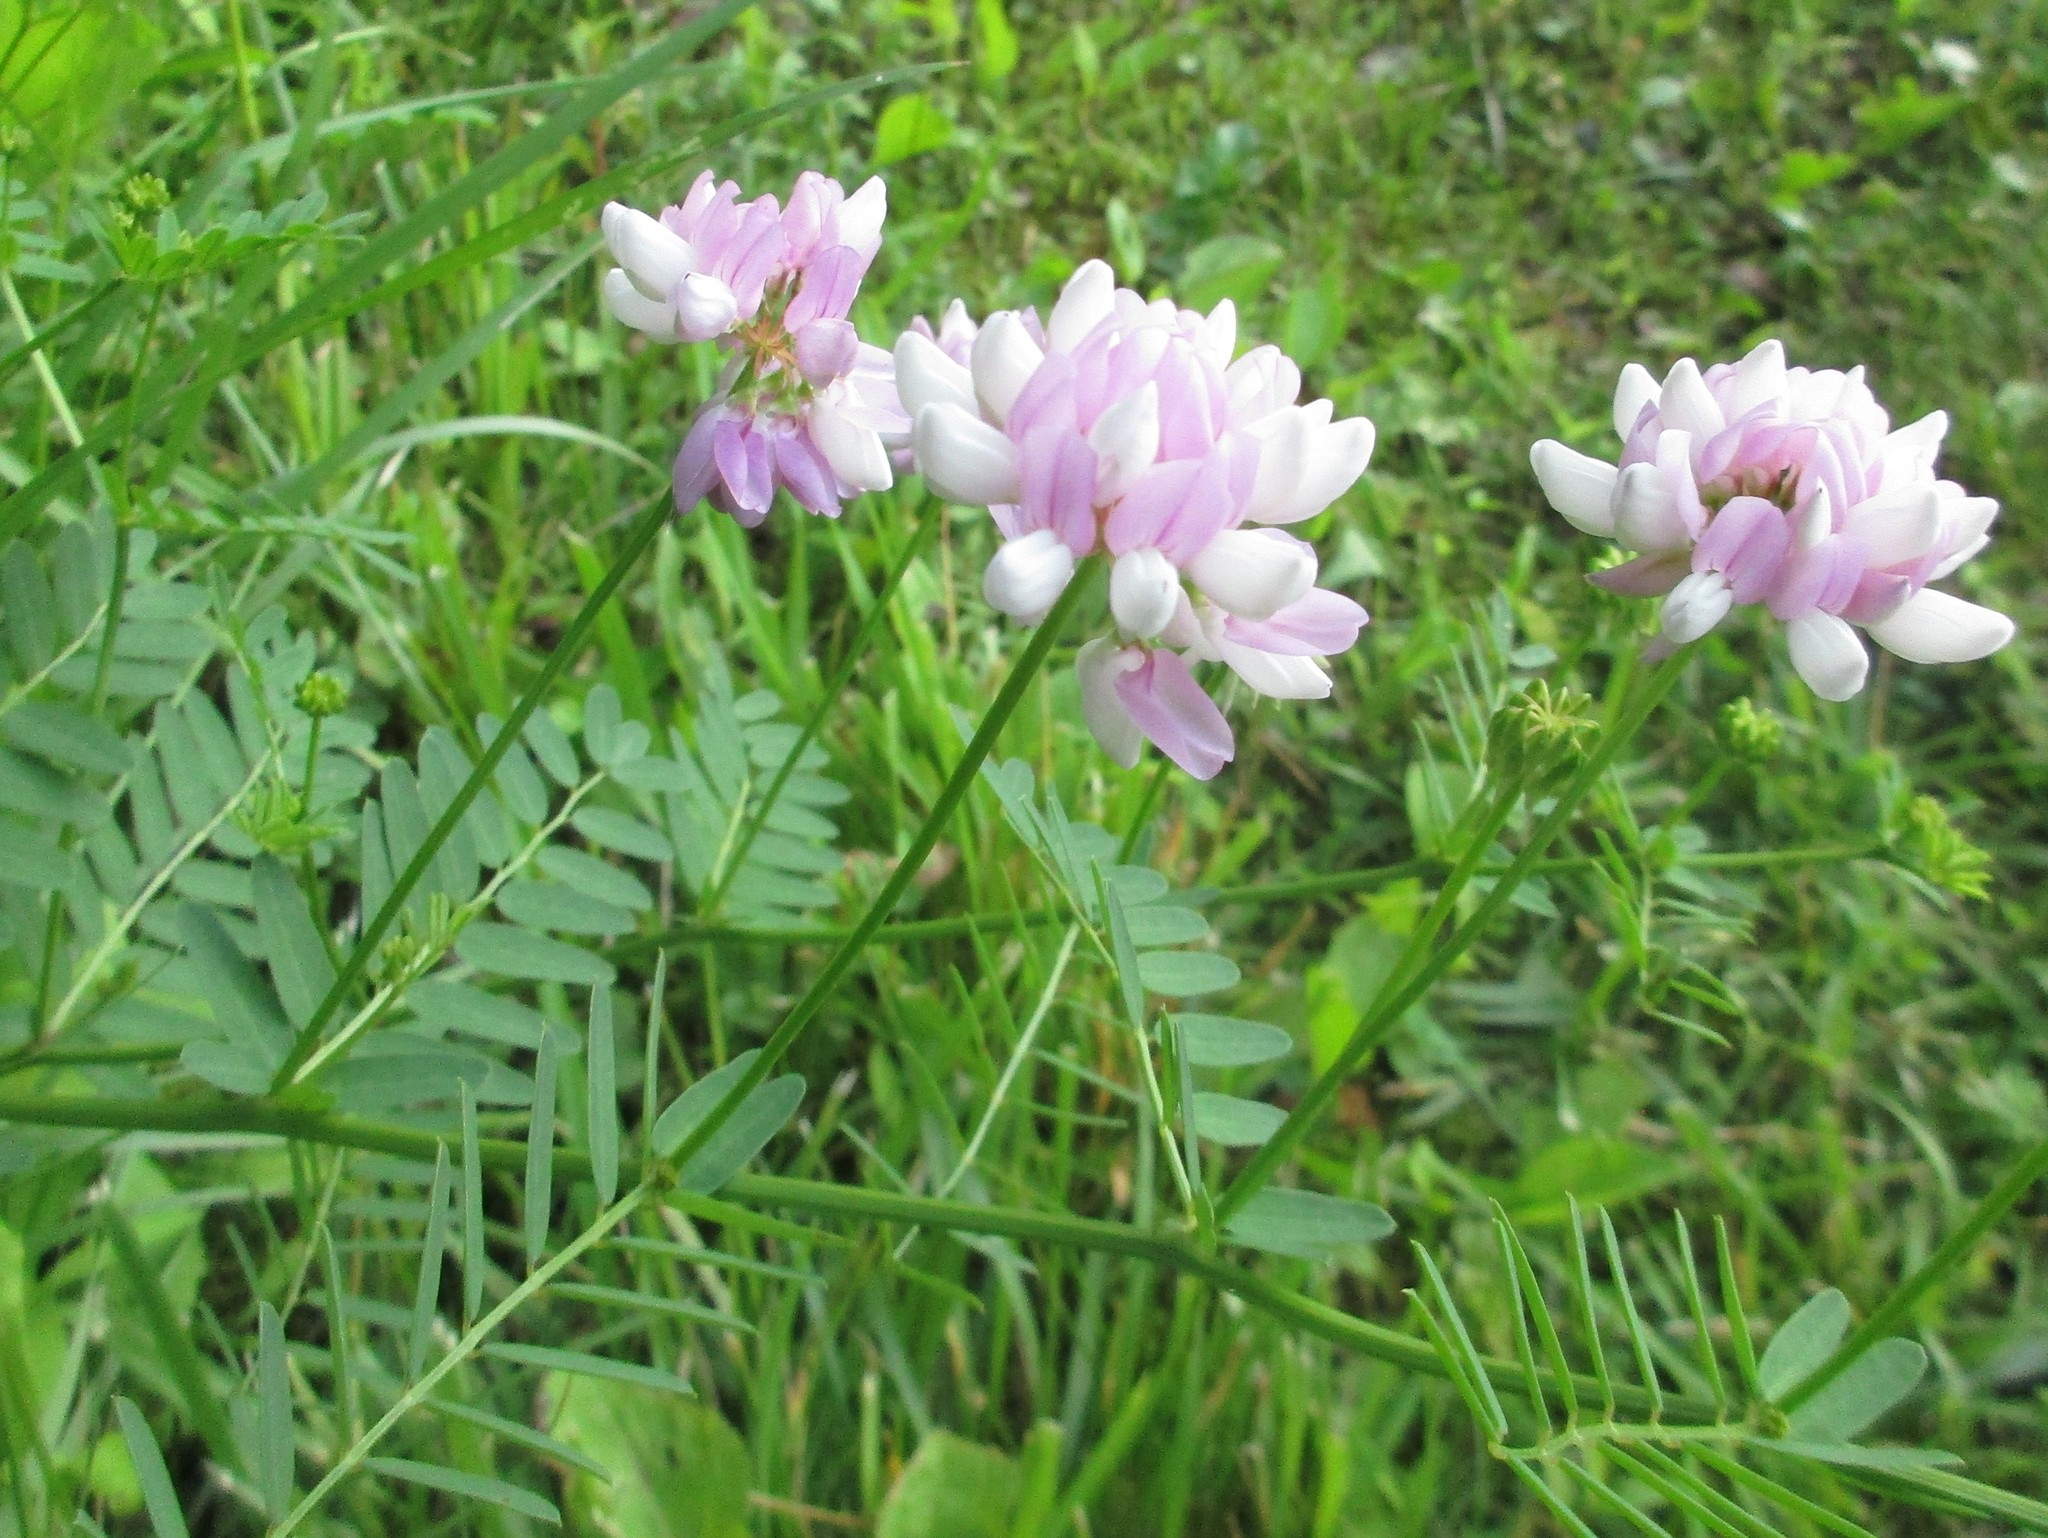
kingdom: Plantae
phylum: Tracheophyta
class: Magnoliopsida
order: Fabales
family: Fabaceae
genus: Coronilla
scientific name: Coronilla varia
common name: Crownvetch
